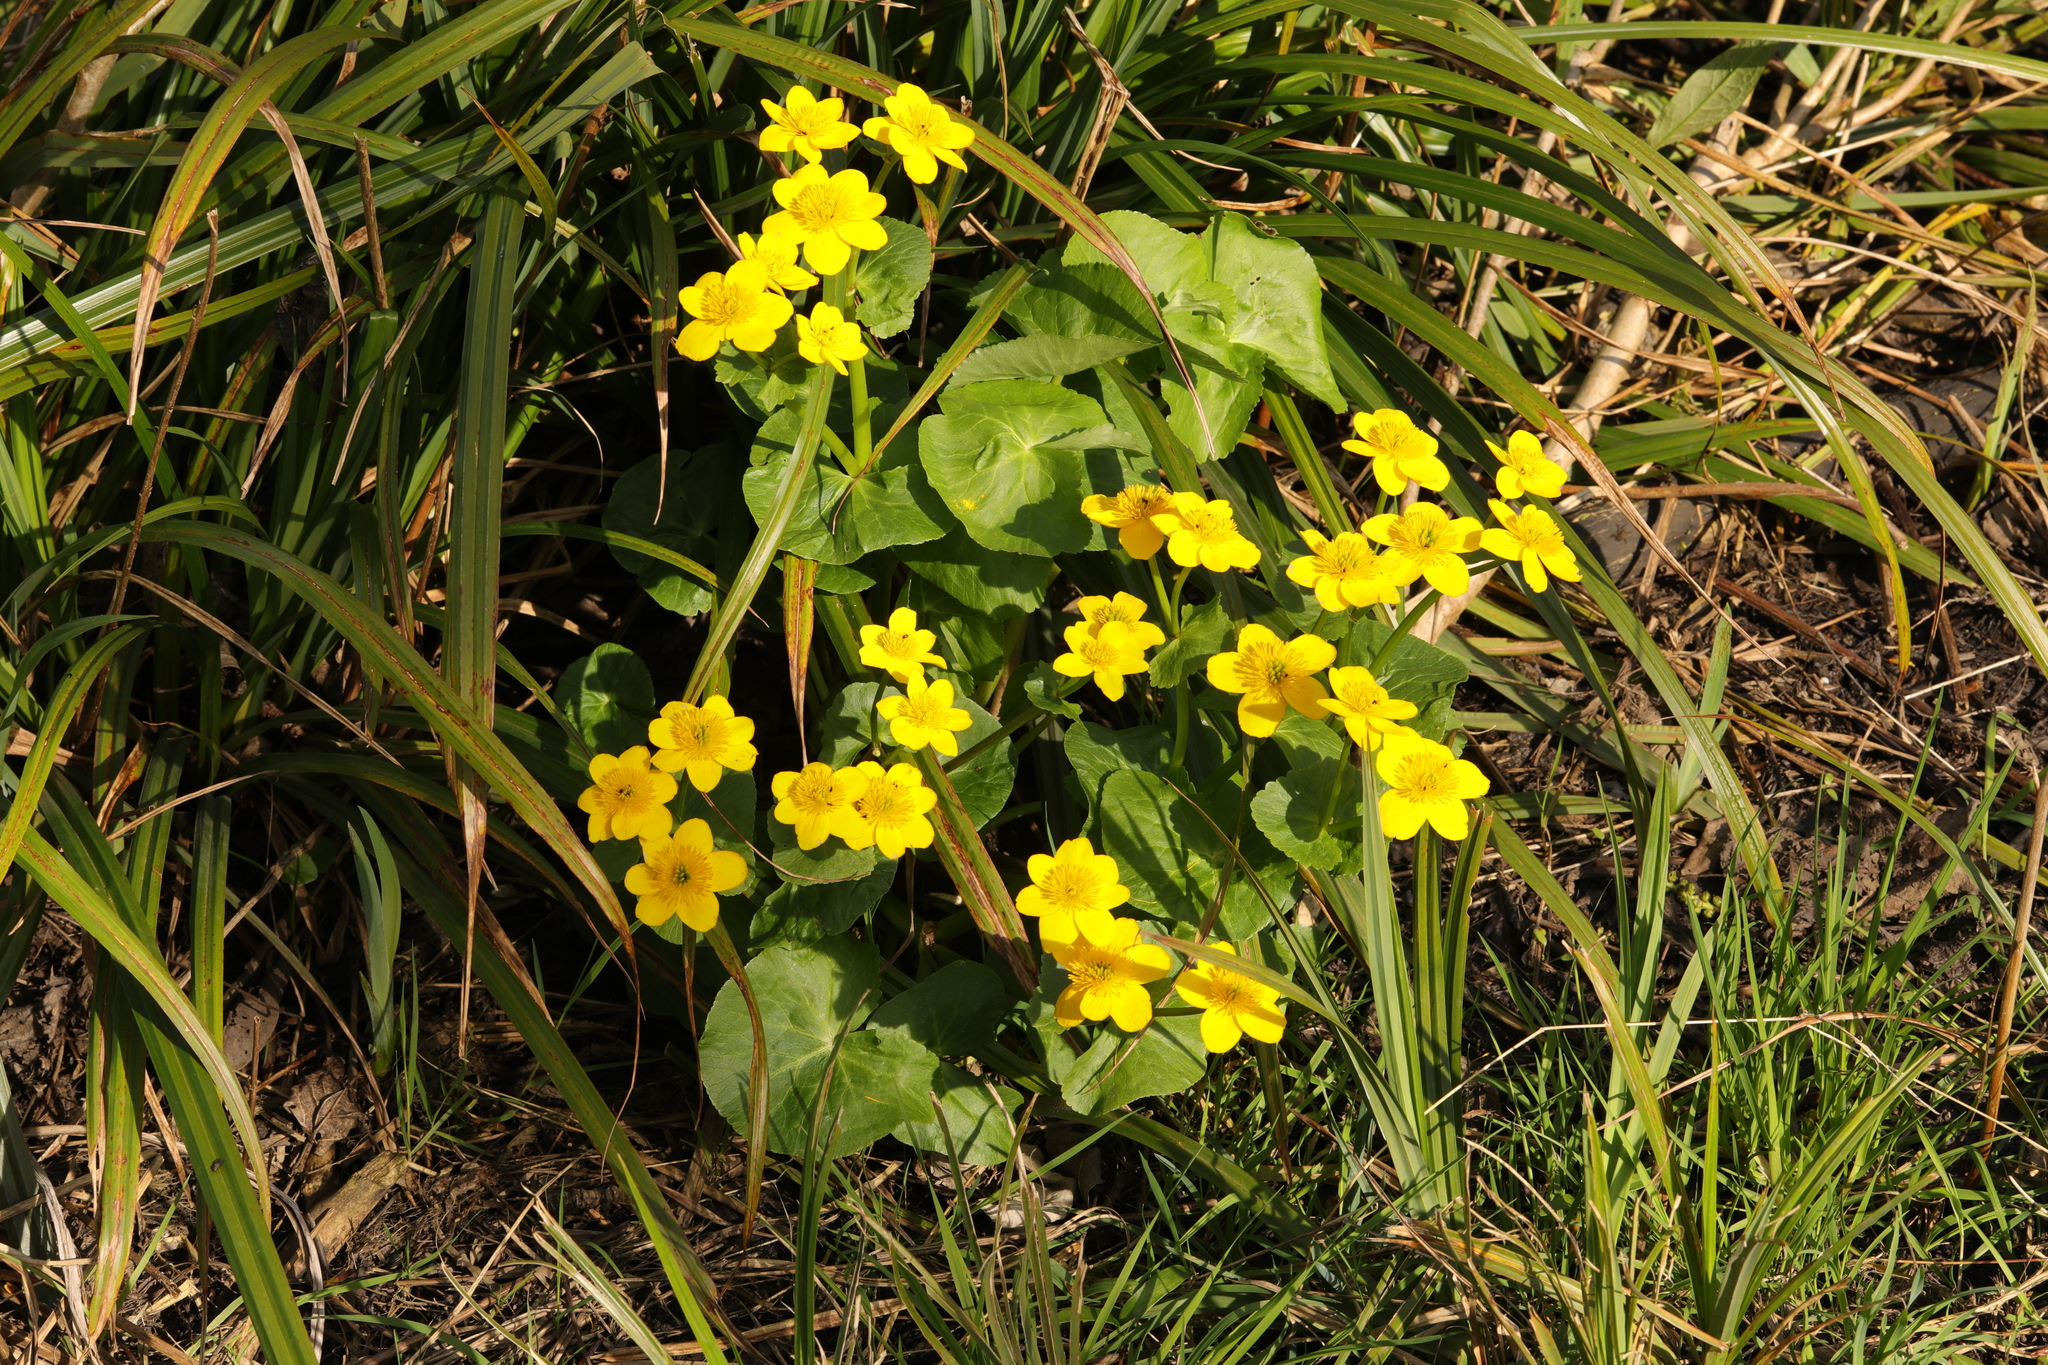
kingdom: Plantae
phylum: Tracheophyta
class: Magnoliopsida
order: Ranunculales
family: Ranunculaceae
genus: Caltha
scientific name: Caltha palustris
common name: Marsh marigold
